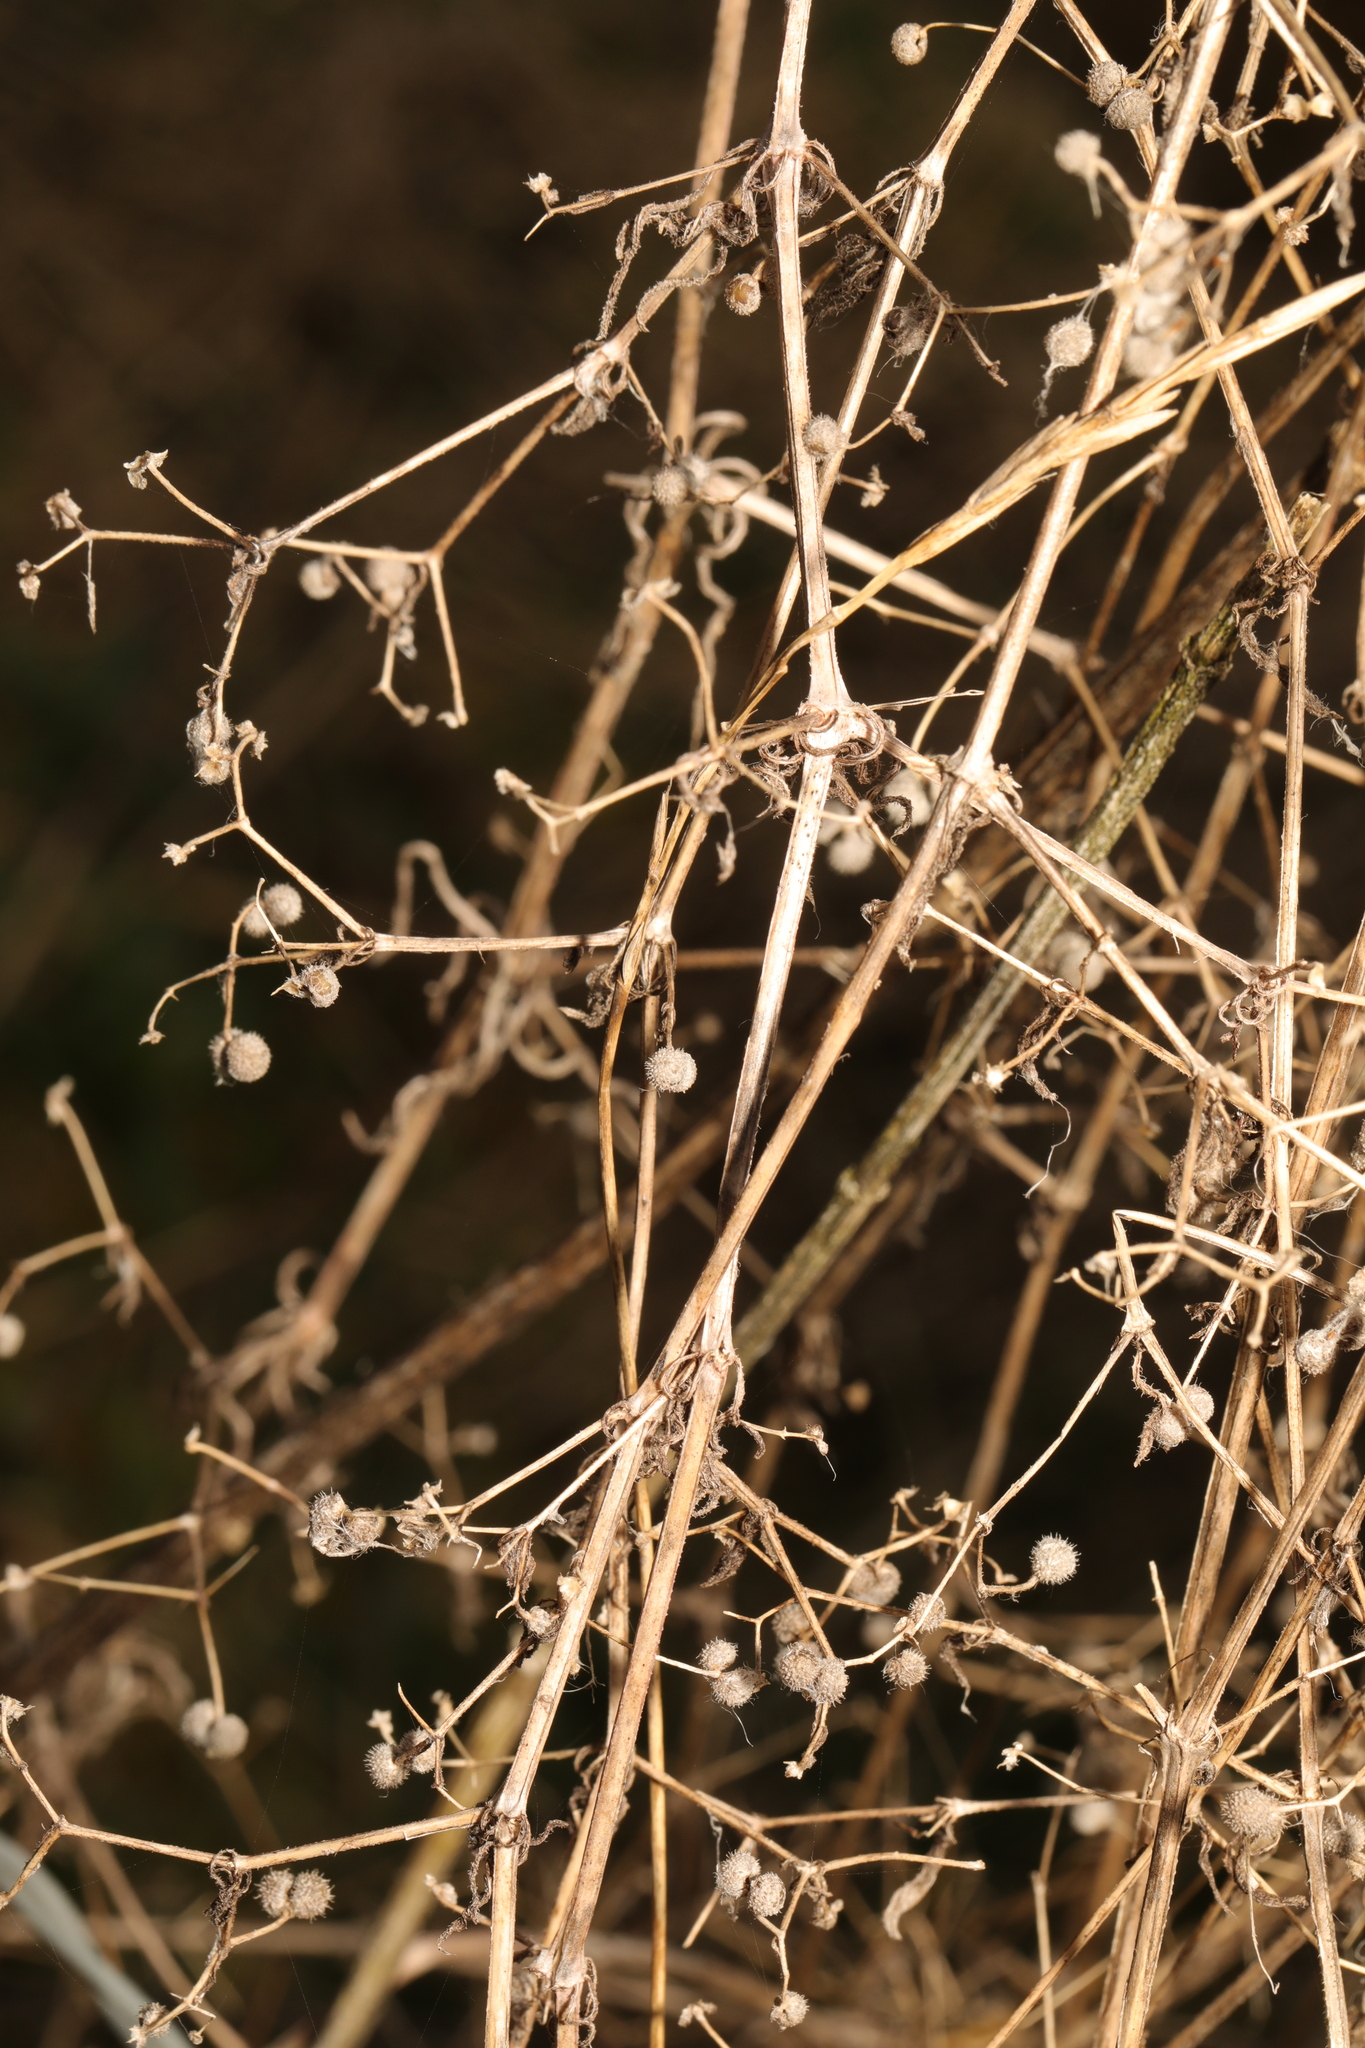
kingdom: Plantae
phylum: Tracheophyta
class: Magnoliopsida
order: Gentianales
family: Rubiaceae
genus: Galium
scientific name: Galium aparine
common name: Cleavers
